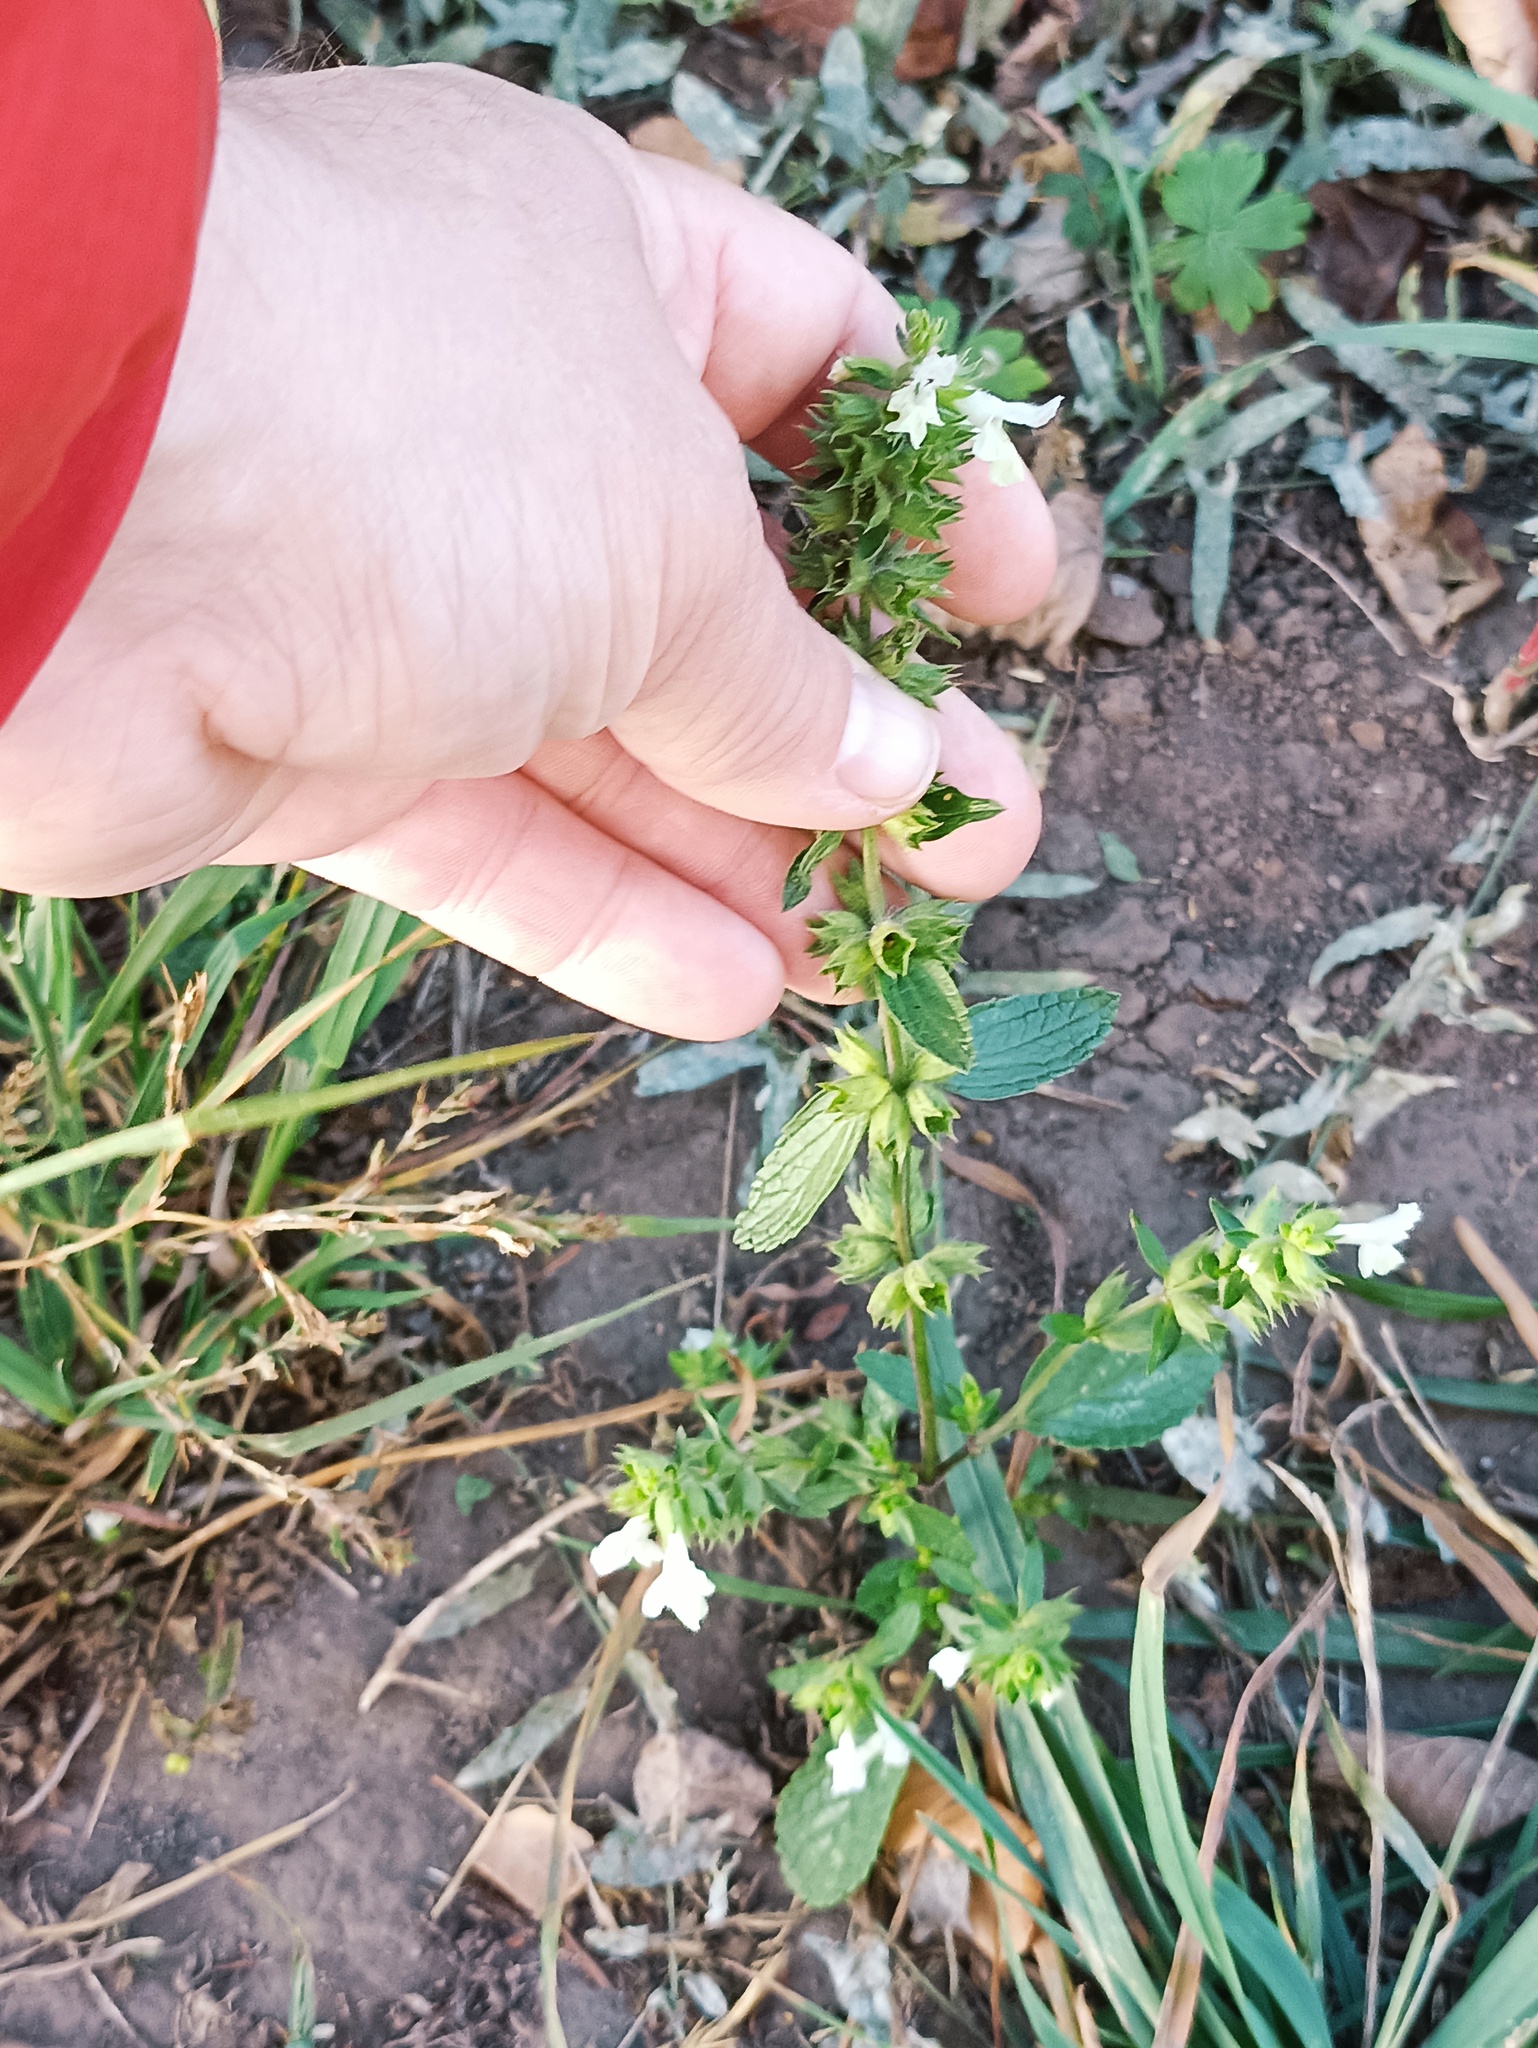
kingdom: Plantae
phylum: Tracheophyta
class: Magnoliopsida
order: Lamiales
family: Lamiaceae
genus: Stachys
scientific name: Stachys annua
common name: Annual yellow-woundwort
